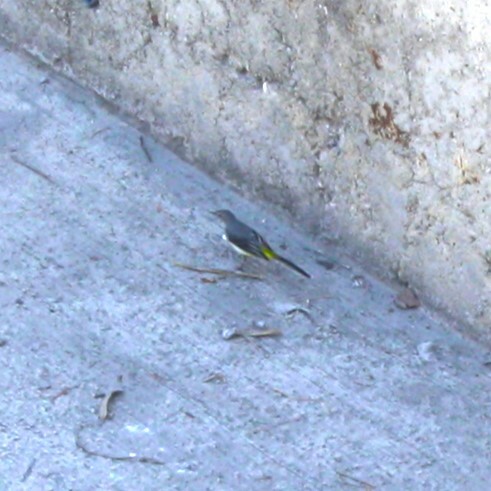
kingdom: Animalia
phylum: Chordata
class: Aves
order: Passeriformes
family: Motacillidae
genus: Motacilla
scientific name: Motacilla cinerea
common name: Grey wagtail
